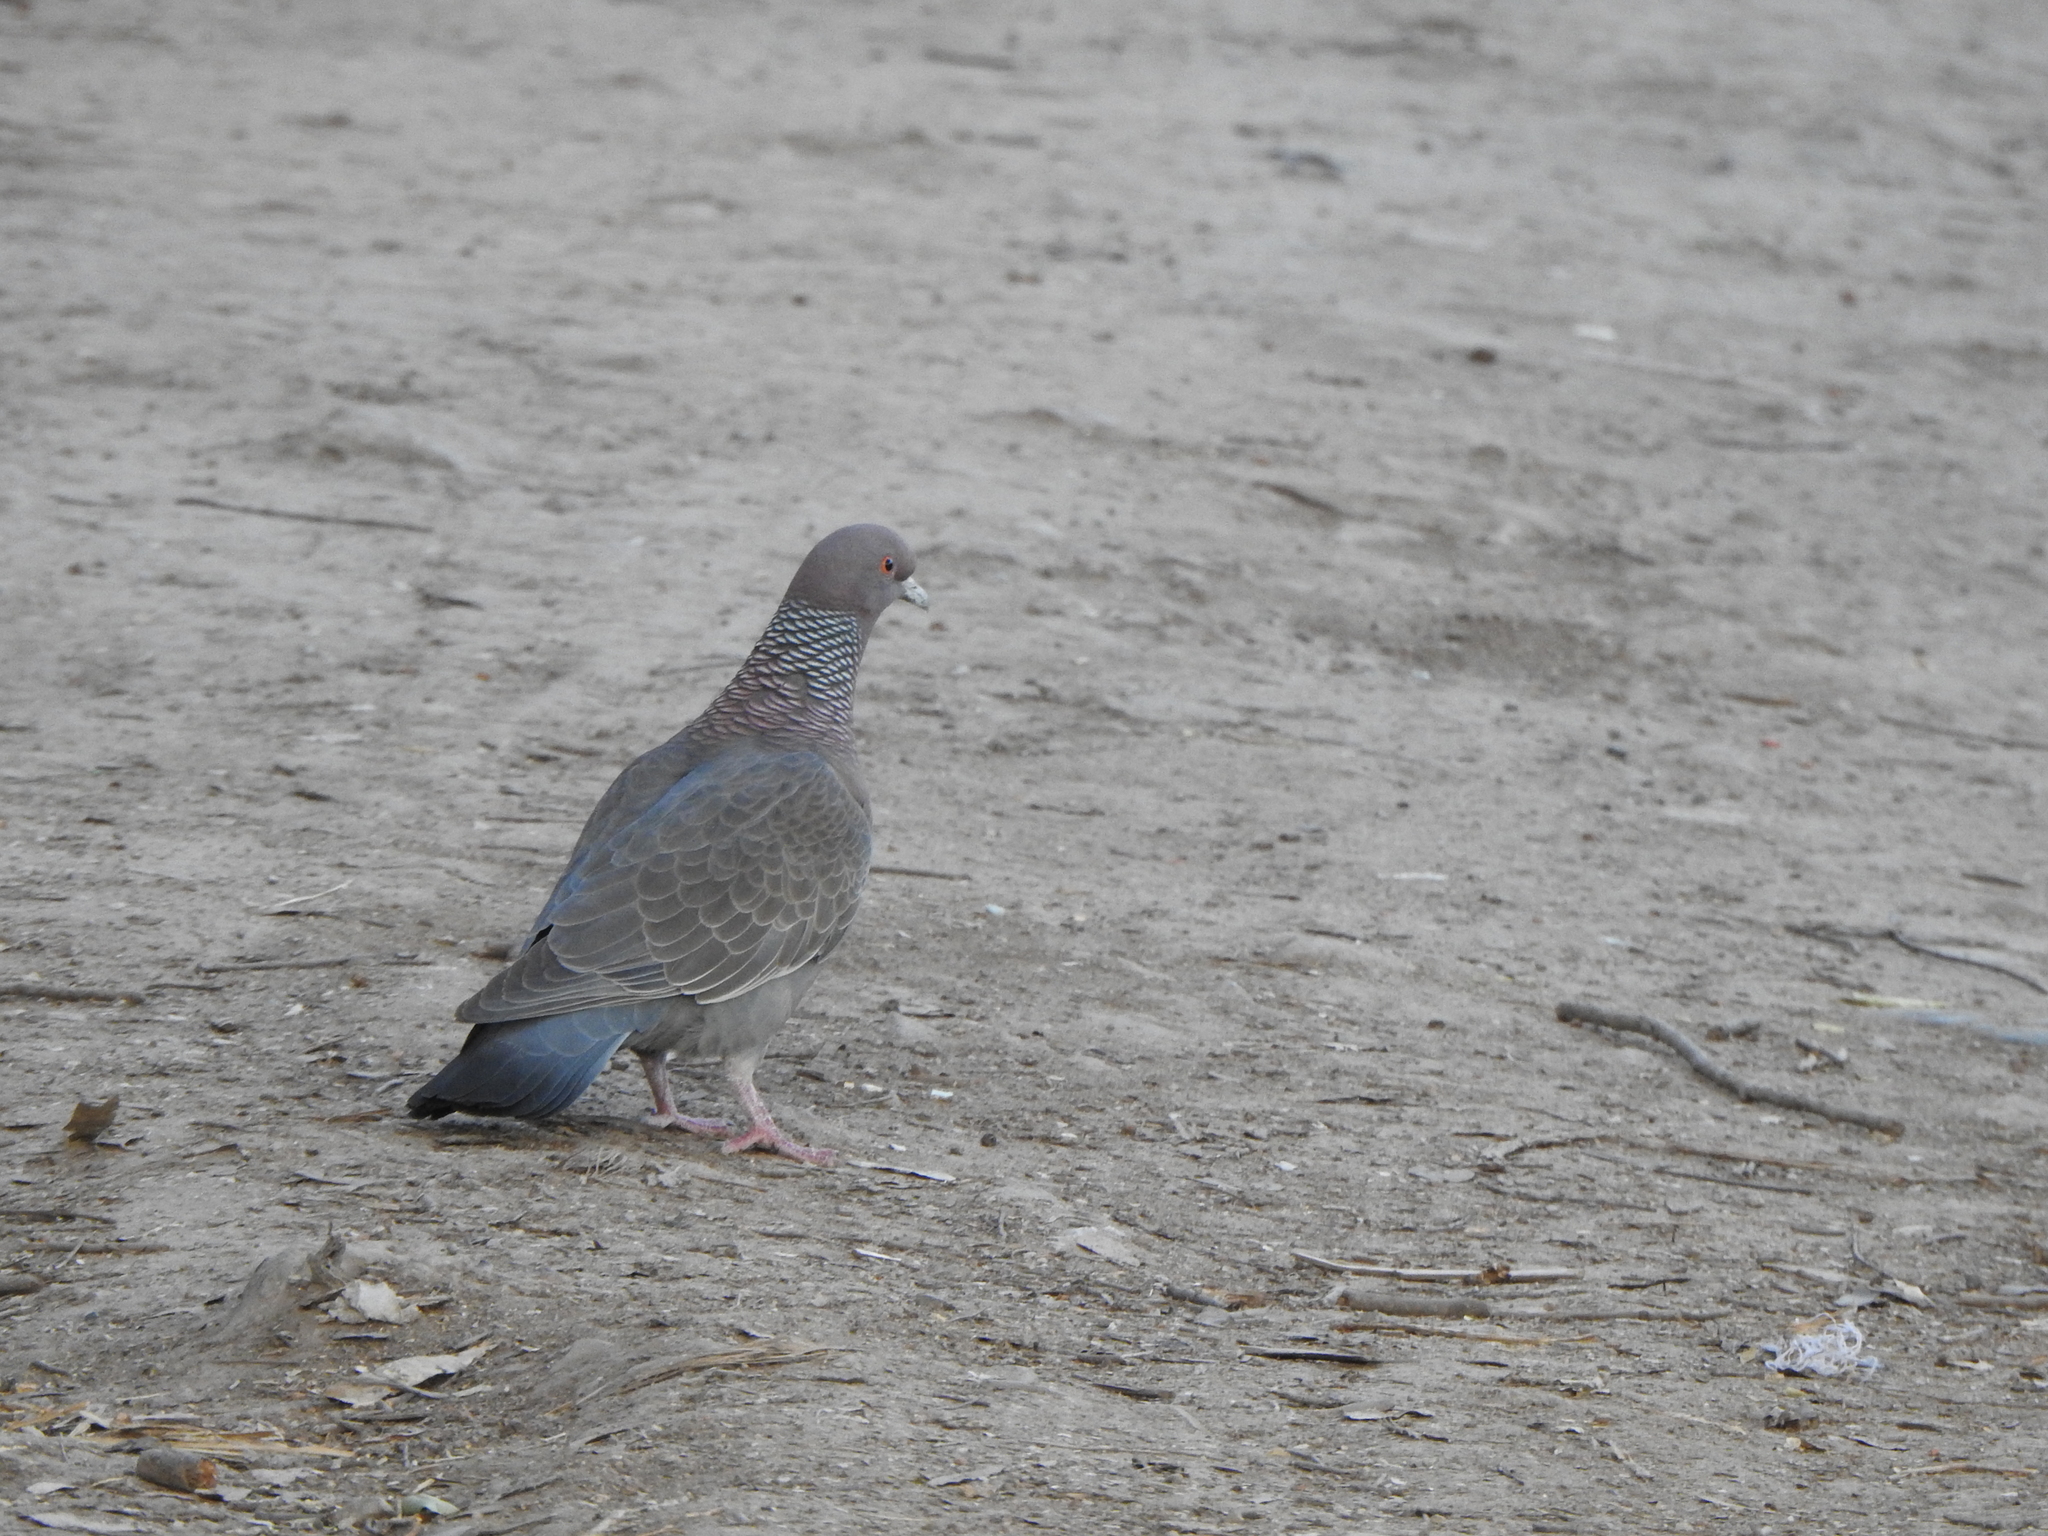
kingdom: Animalia
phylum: Chordata
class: Aves
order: Columbiformes
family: Columbidae
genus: Patagioenas
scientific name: Patagioenas picazuro
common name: Picazuro pigeon
